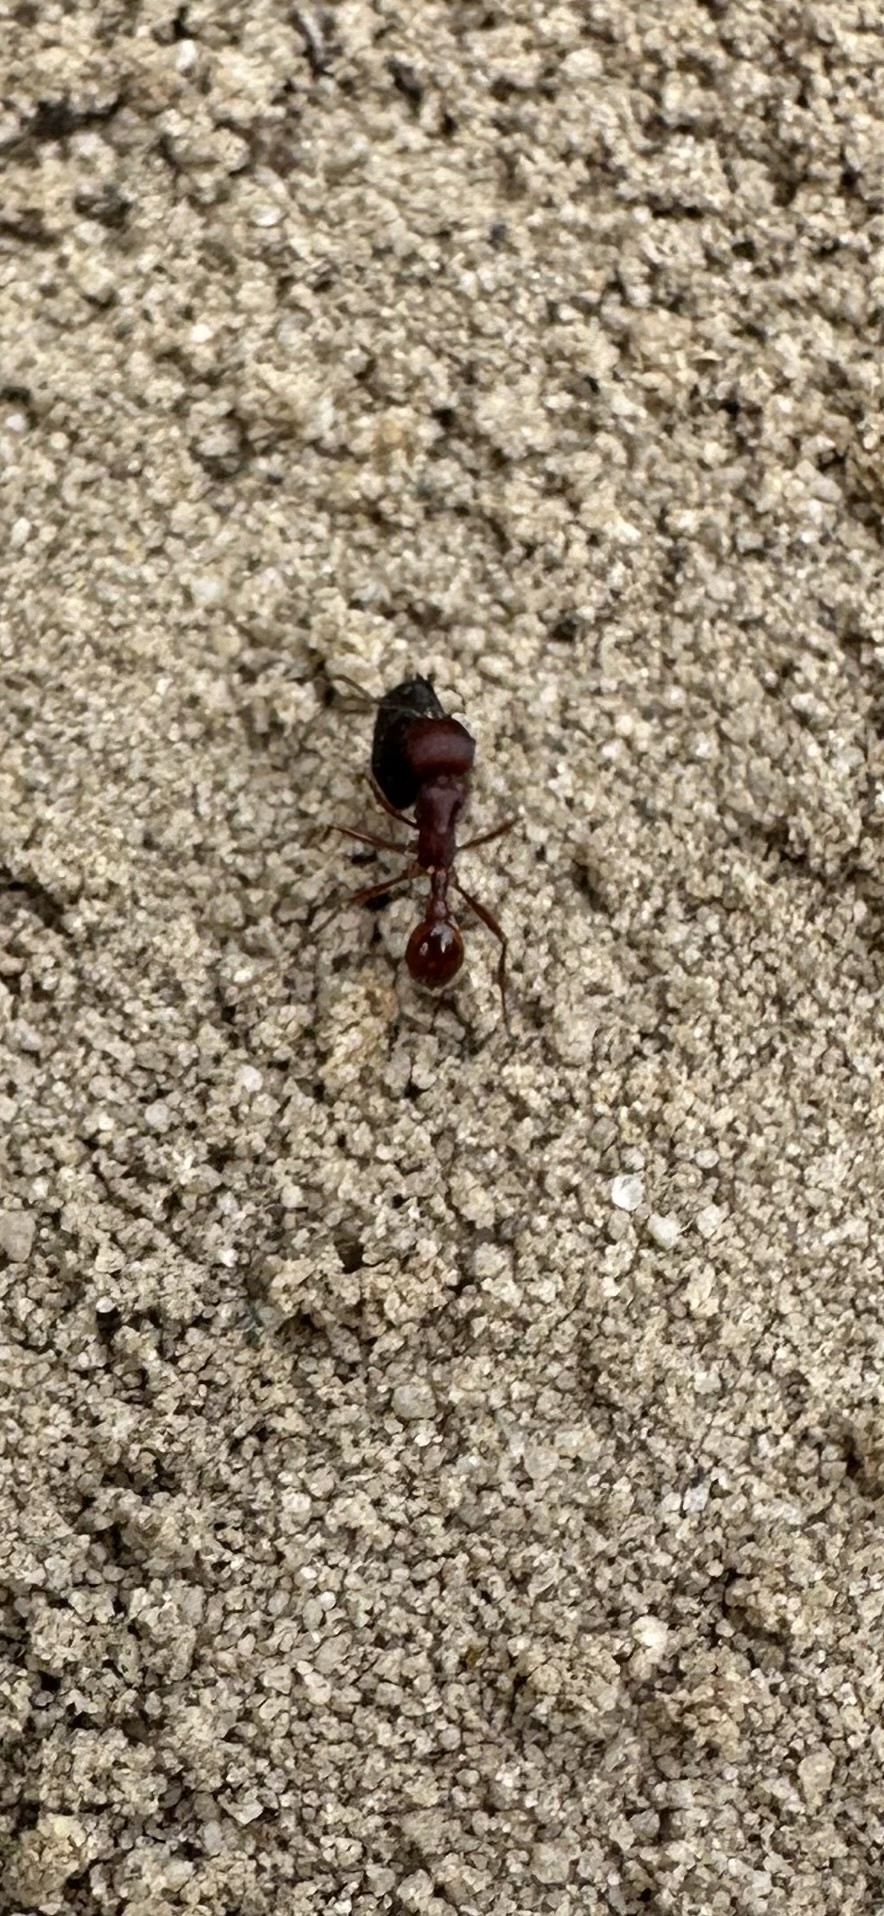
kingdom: Animalia
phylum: Arthropoda
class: Insecta
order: Hymenoptera
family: Formicidae
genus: Pogonomyrmex
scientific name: Pogonomyrmex badius
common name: Florida harvester ant
